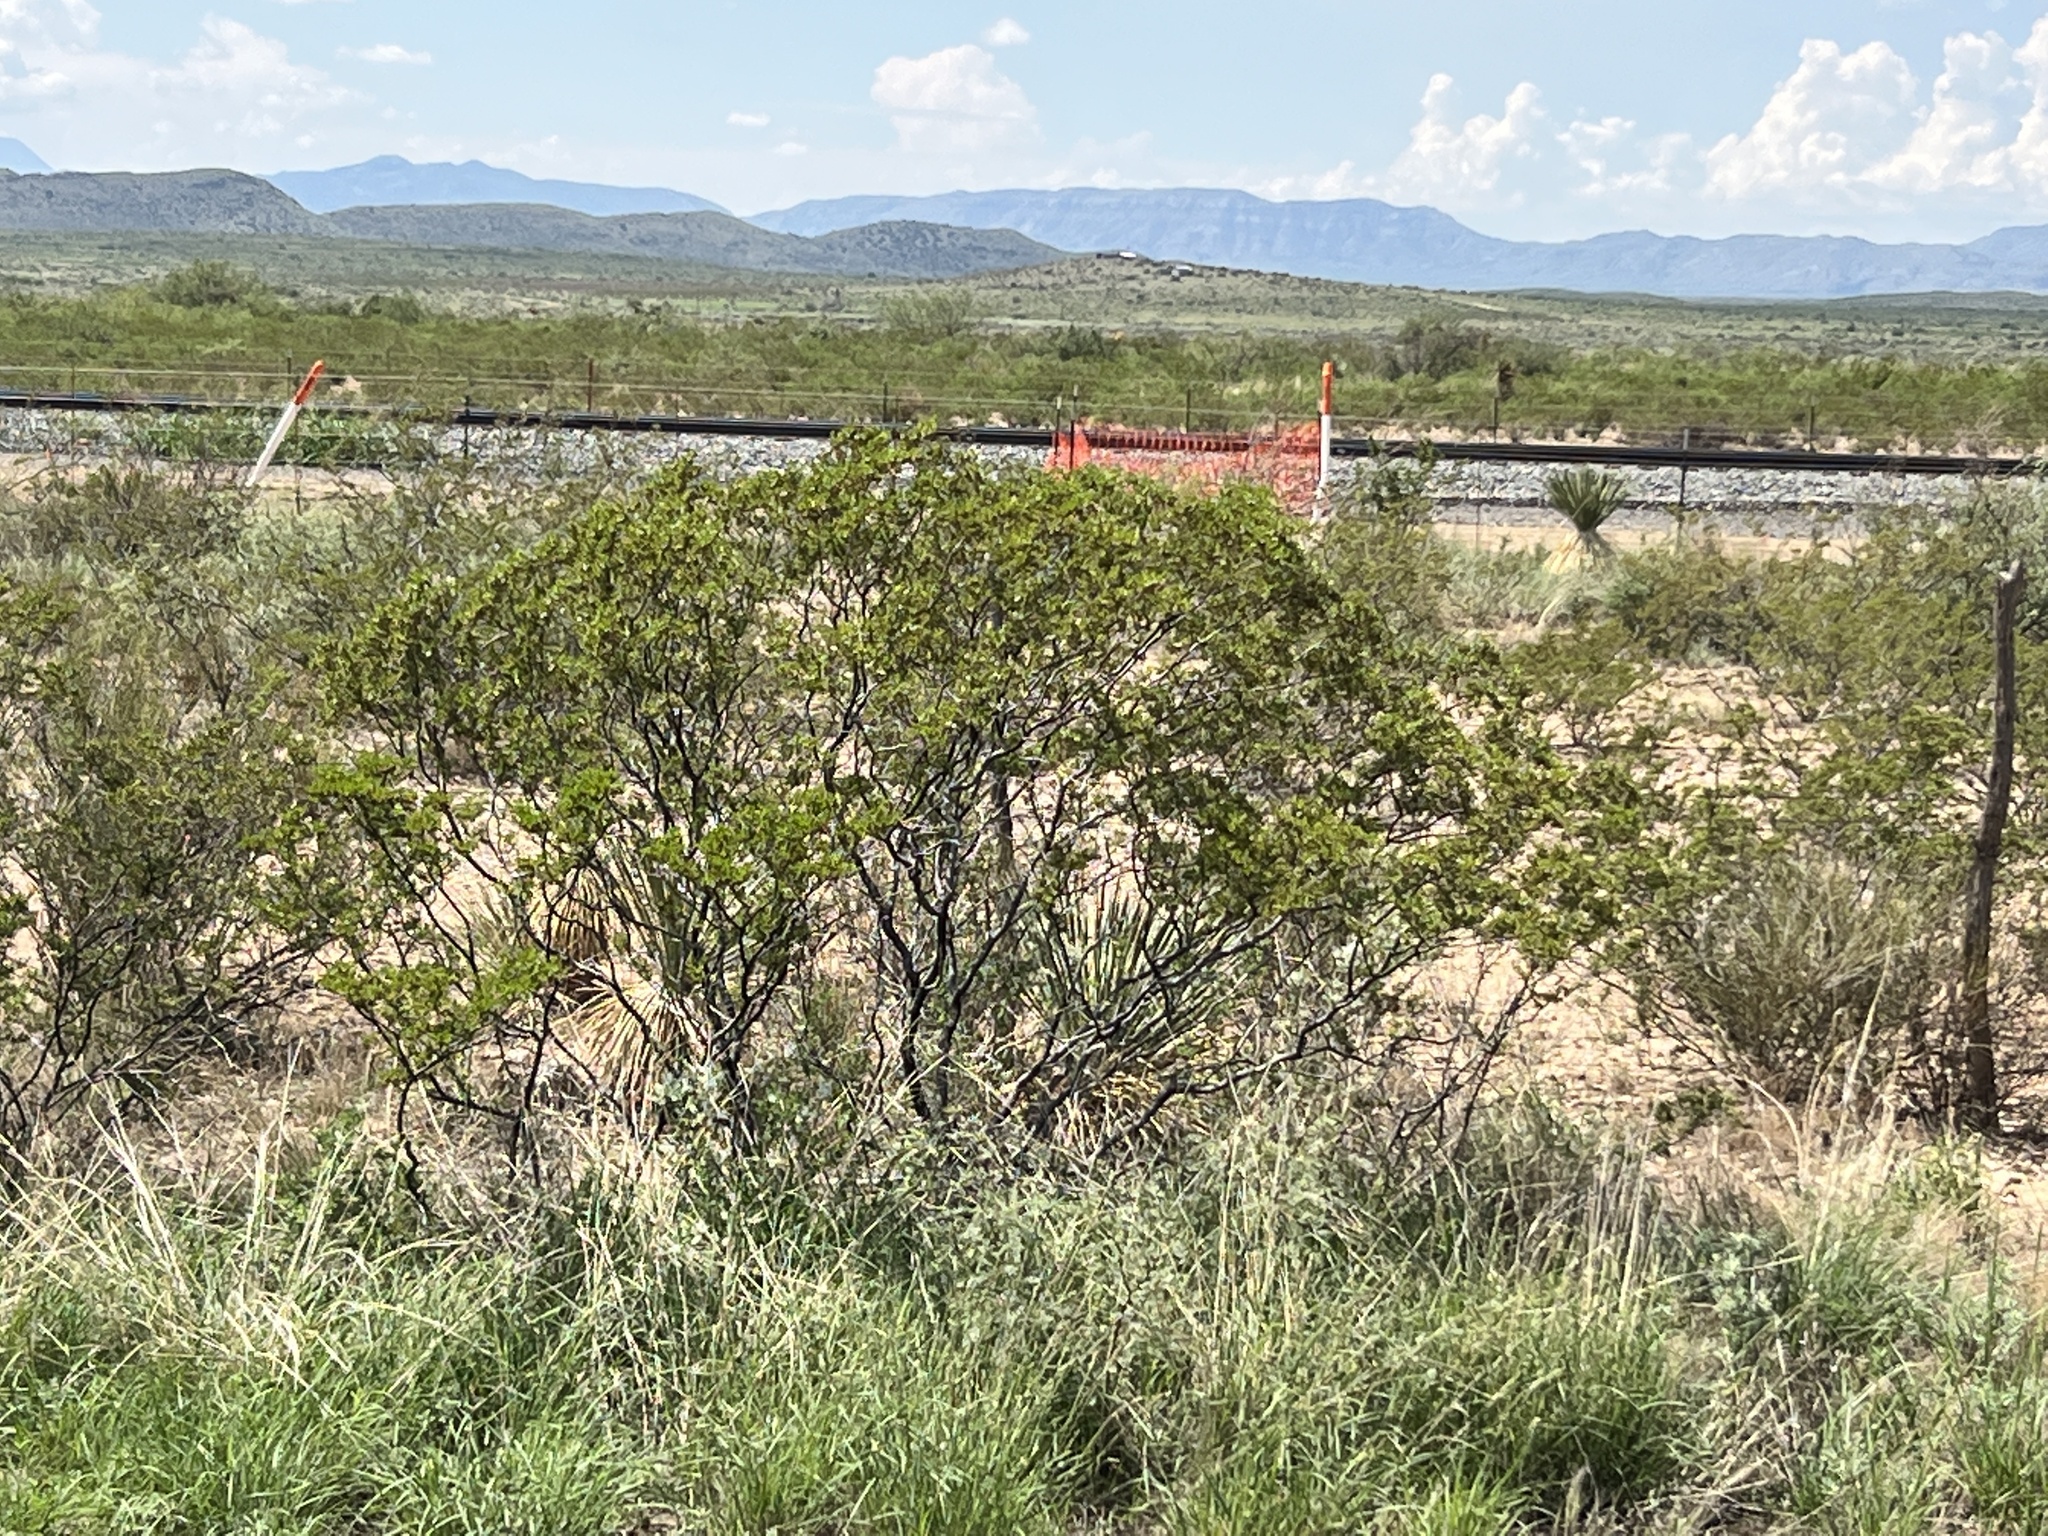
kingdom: Plantae
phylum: Tracheophyta
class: Magnoliopsida
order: Zygophyllales
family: Zygophyllaceae
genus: Larrea
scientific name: Larrea tridentata
